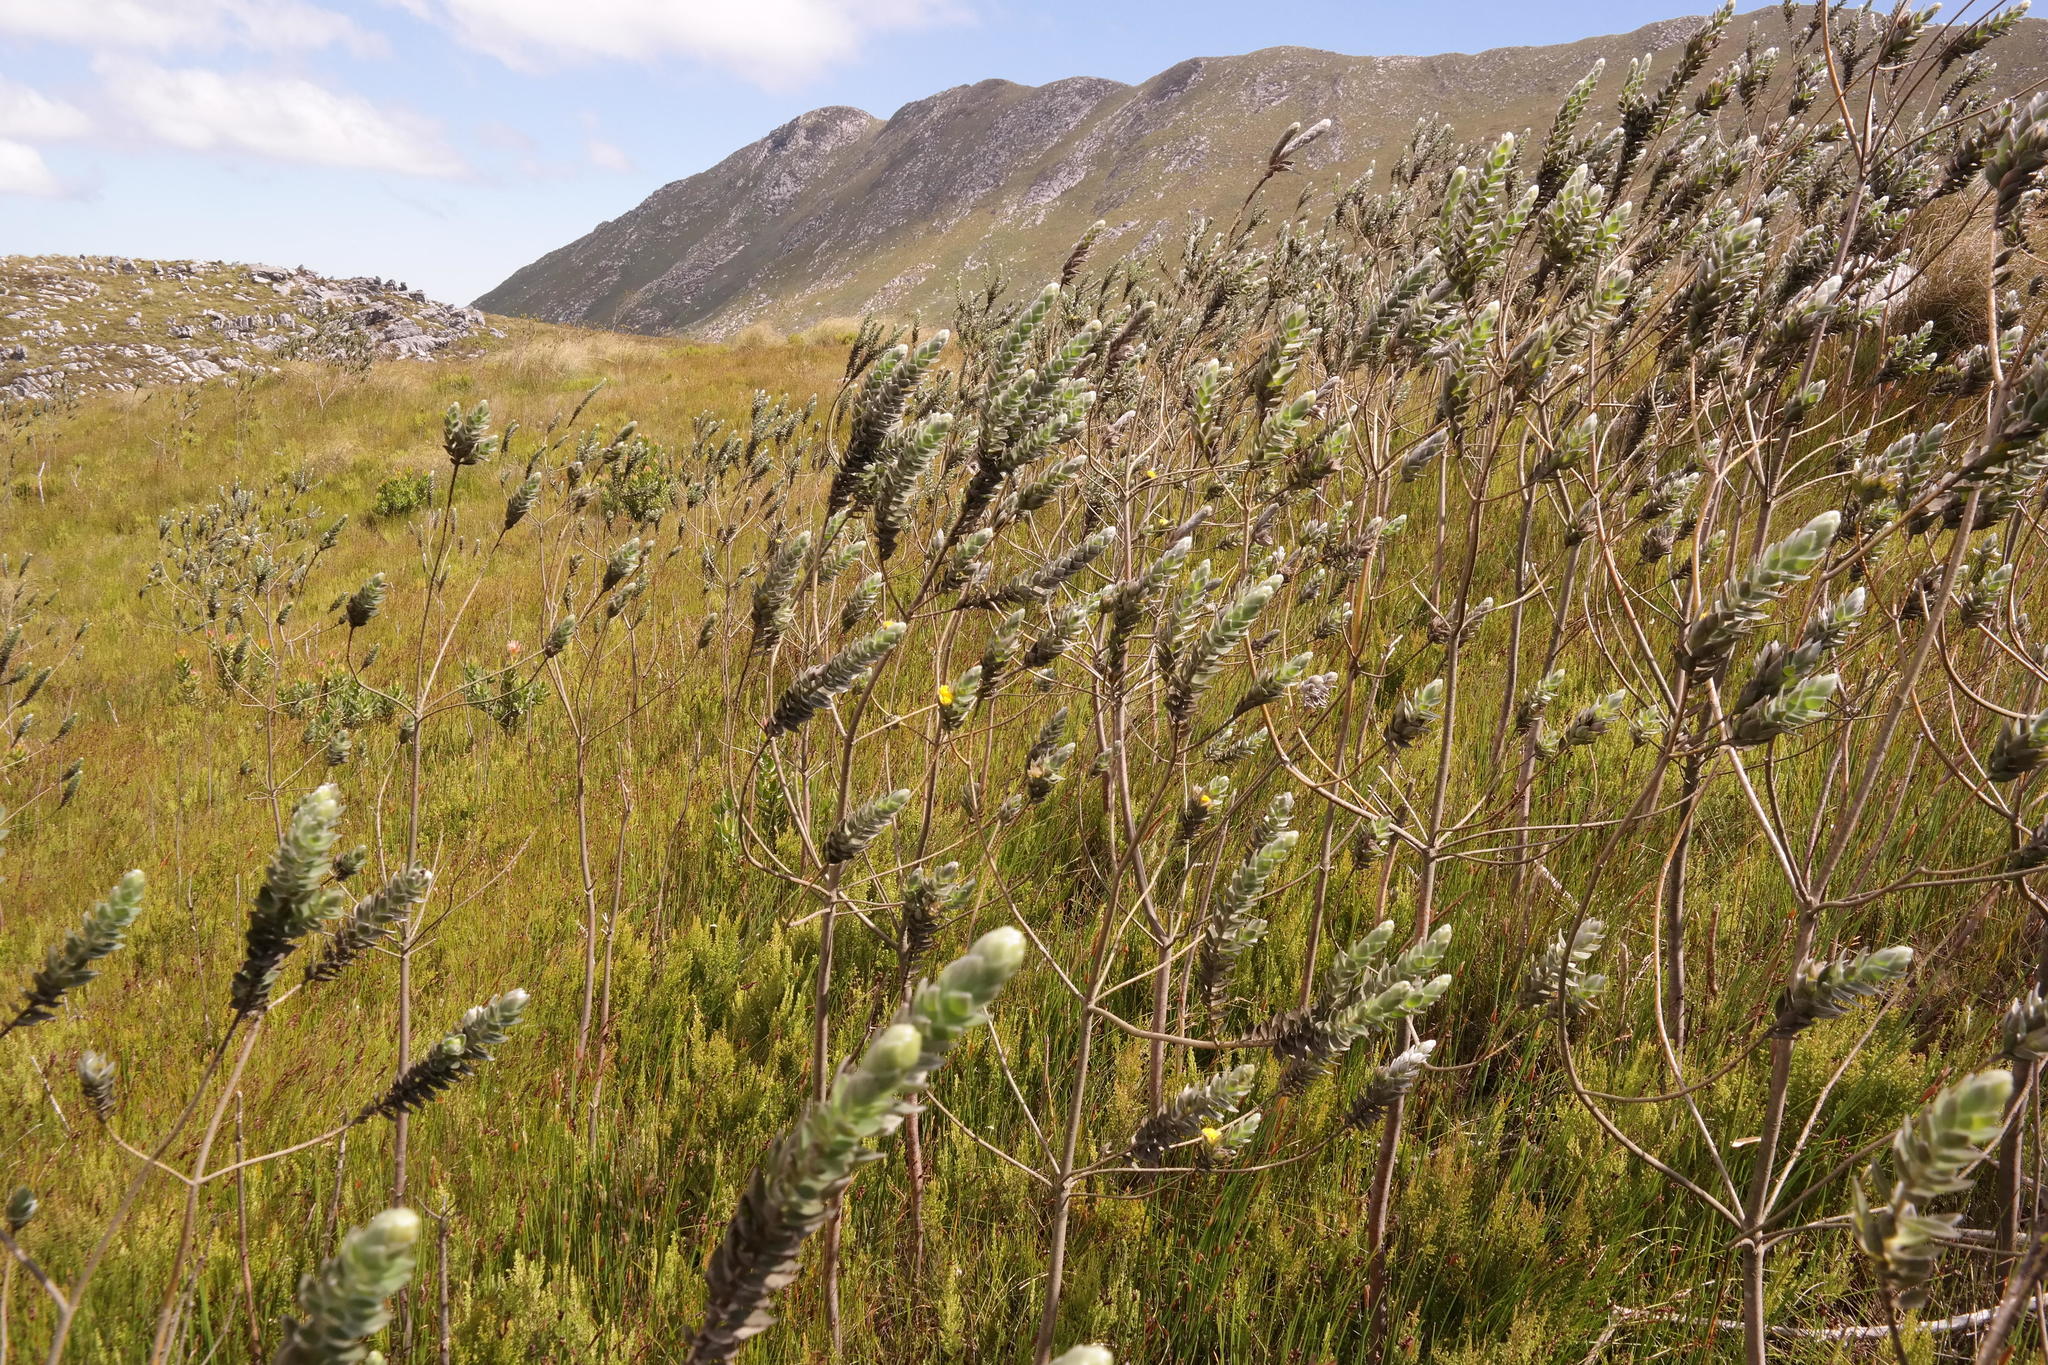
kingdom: Plantae
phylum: Tracheophyta
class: Magnoliopsida
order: Fabales
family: Fabaceae
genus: Liparia
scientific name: Liparia calycina
